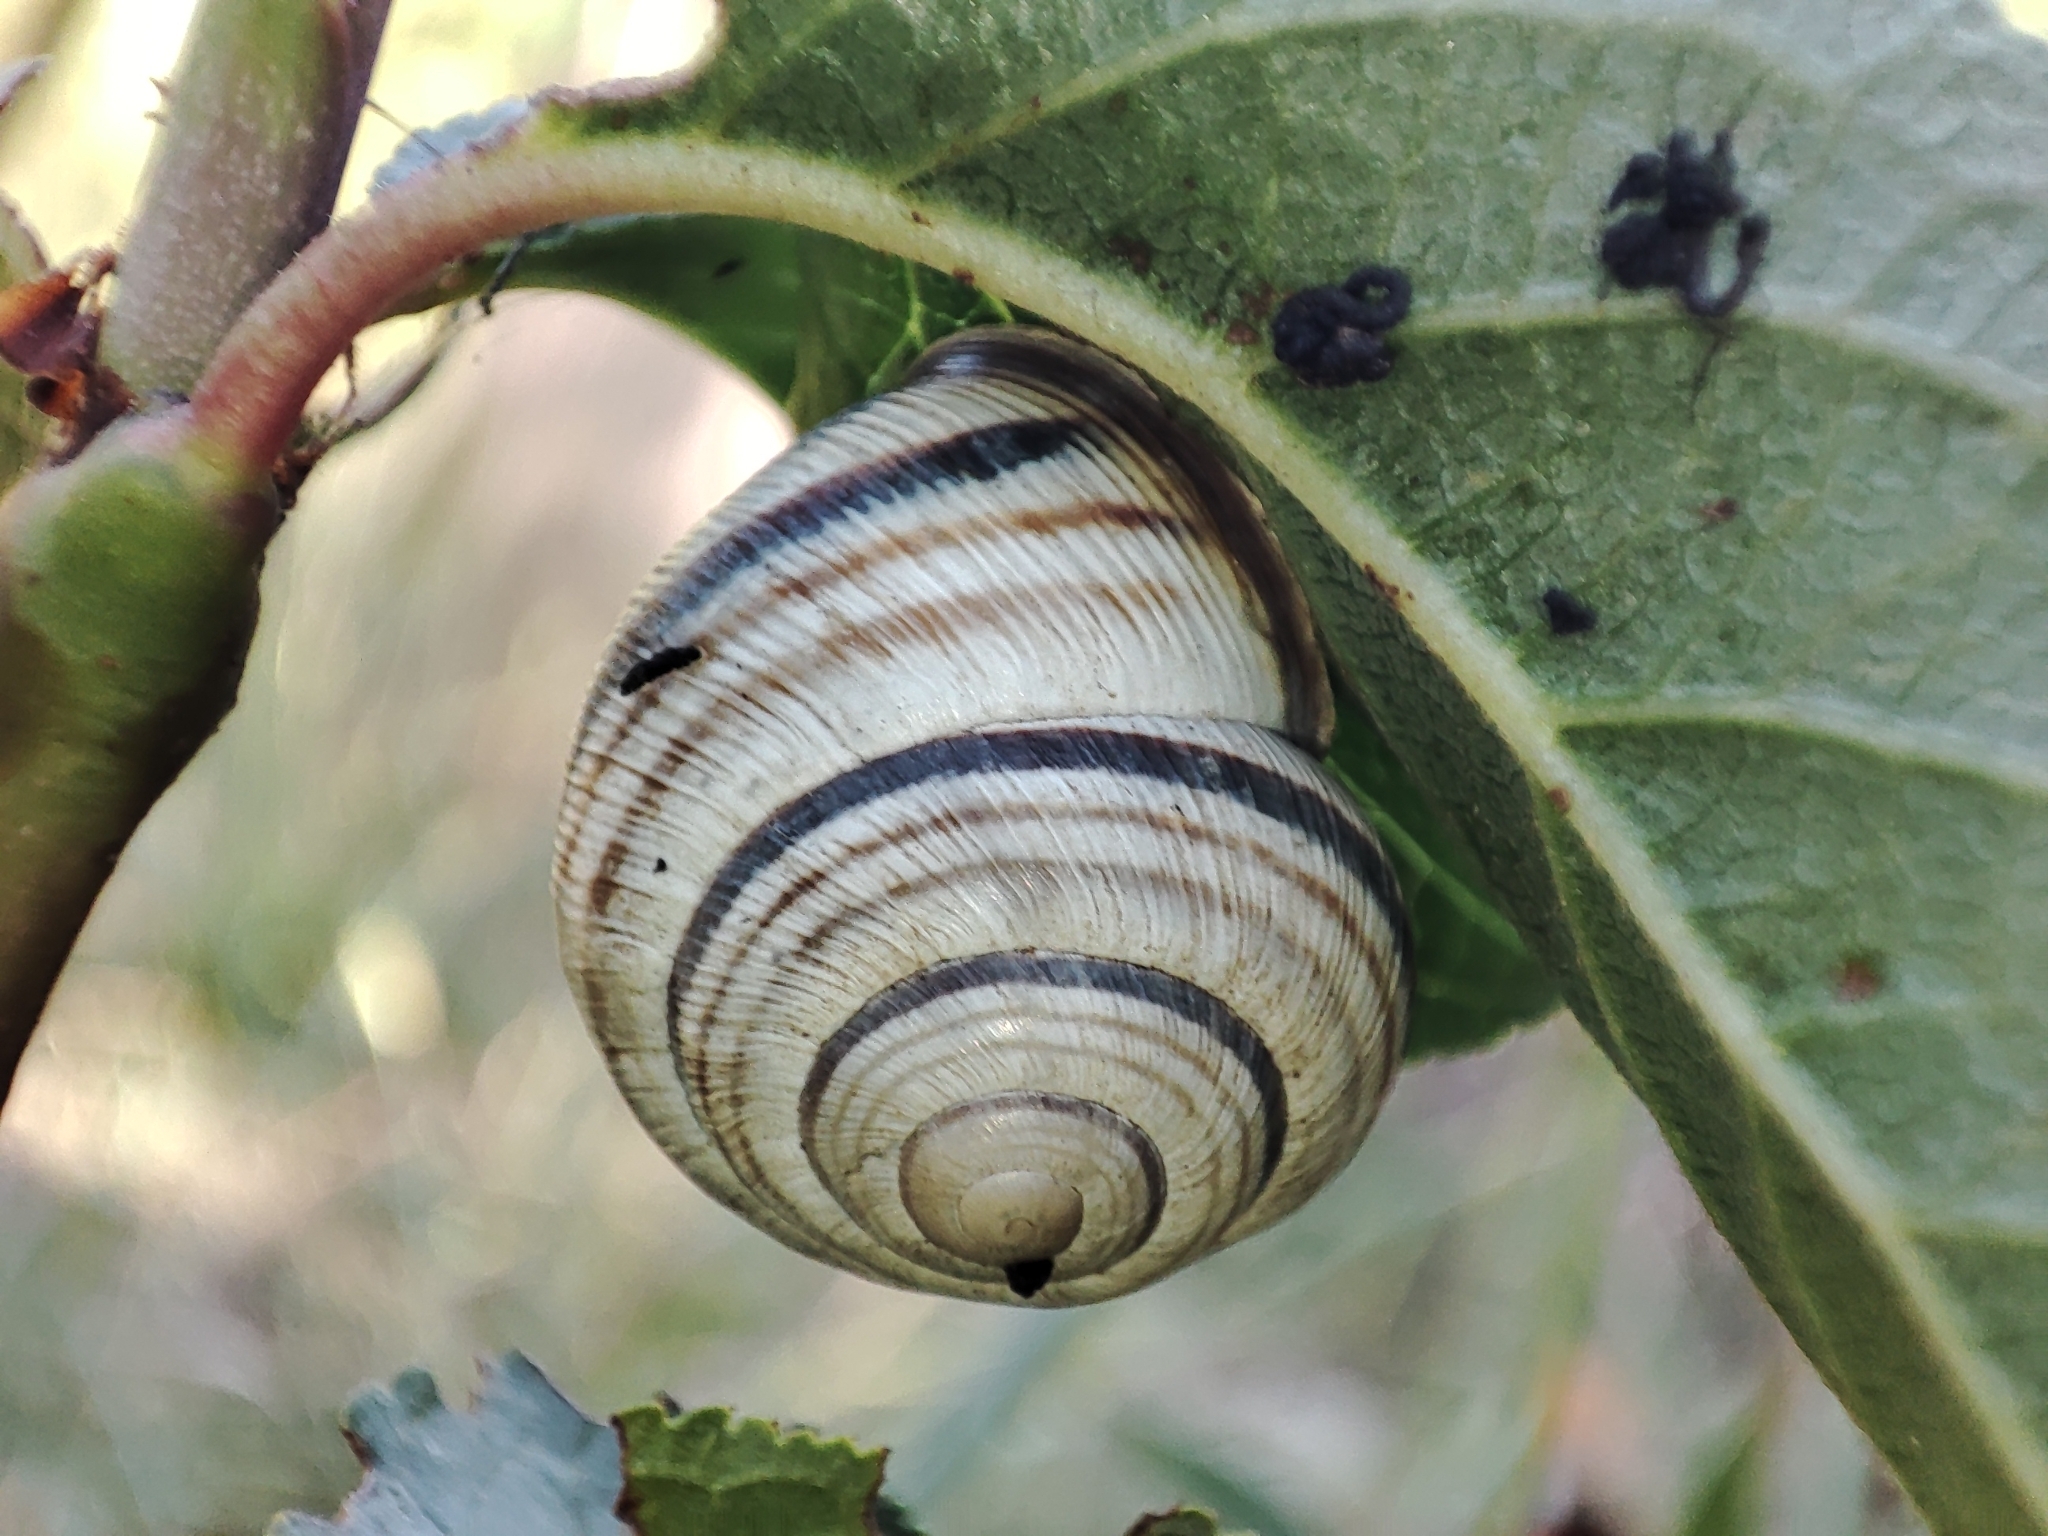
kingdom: Animalia
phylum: Mollusca
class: Gastropoda
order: Stylommatophora
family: Helicidae
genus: Caucasotachea
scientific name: Caucasotachea vindobonensis
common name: European helicid land snail
